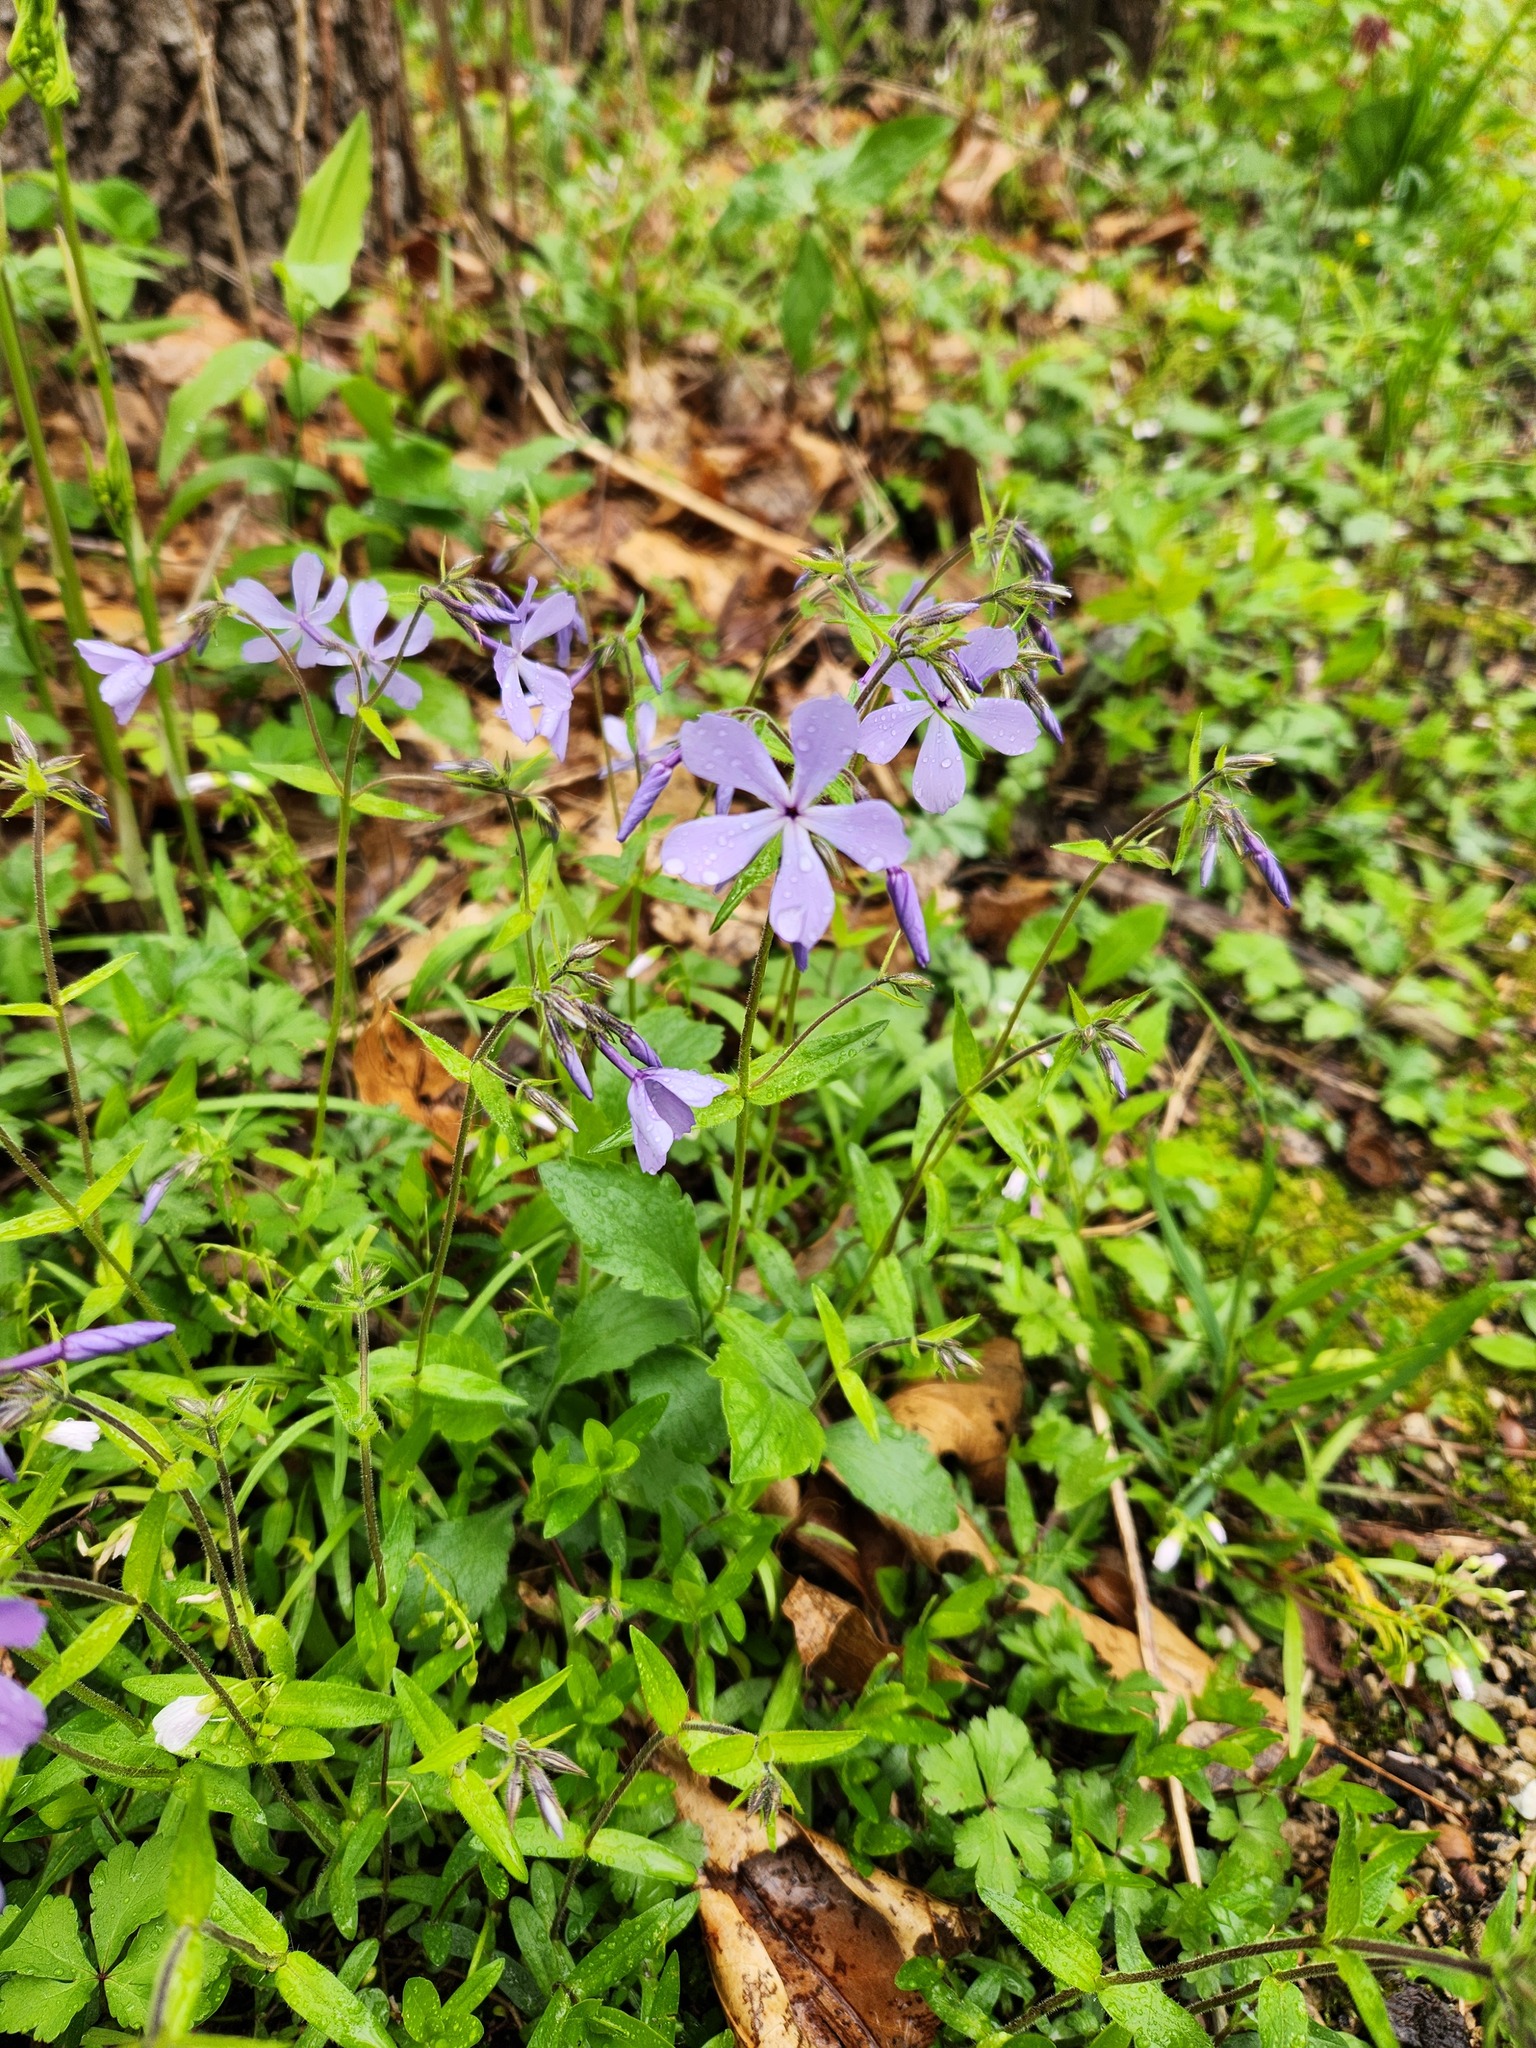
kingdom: Plantae
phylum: Tracheophyta
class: Magnoliopsida
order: Ericales
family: Polemoniaceae
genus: Phlox
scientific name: Phlox divaricata
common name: Blue phlox
